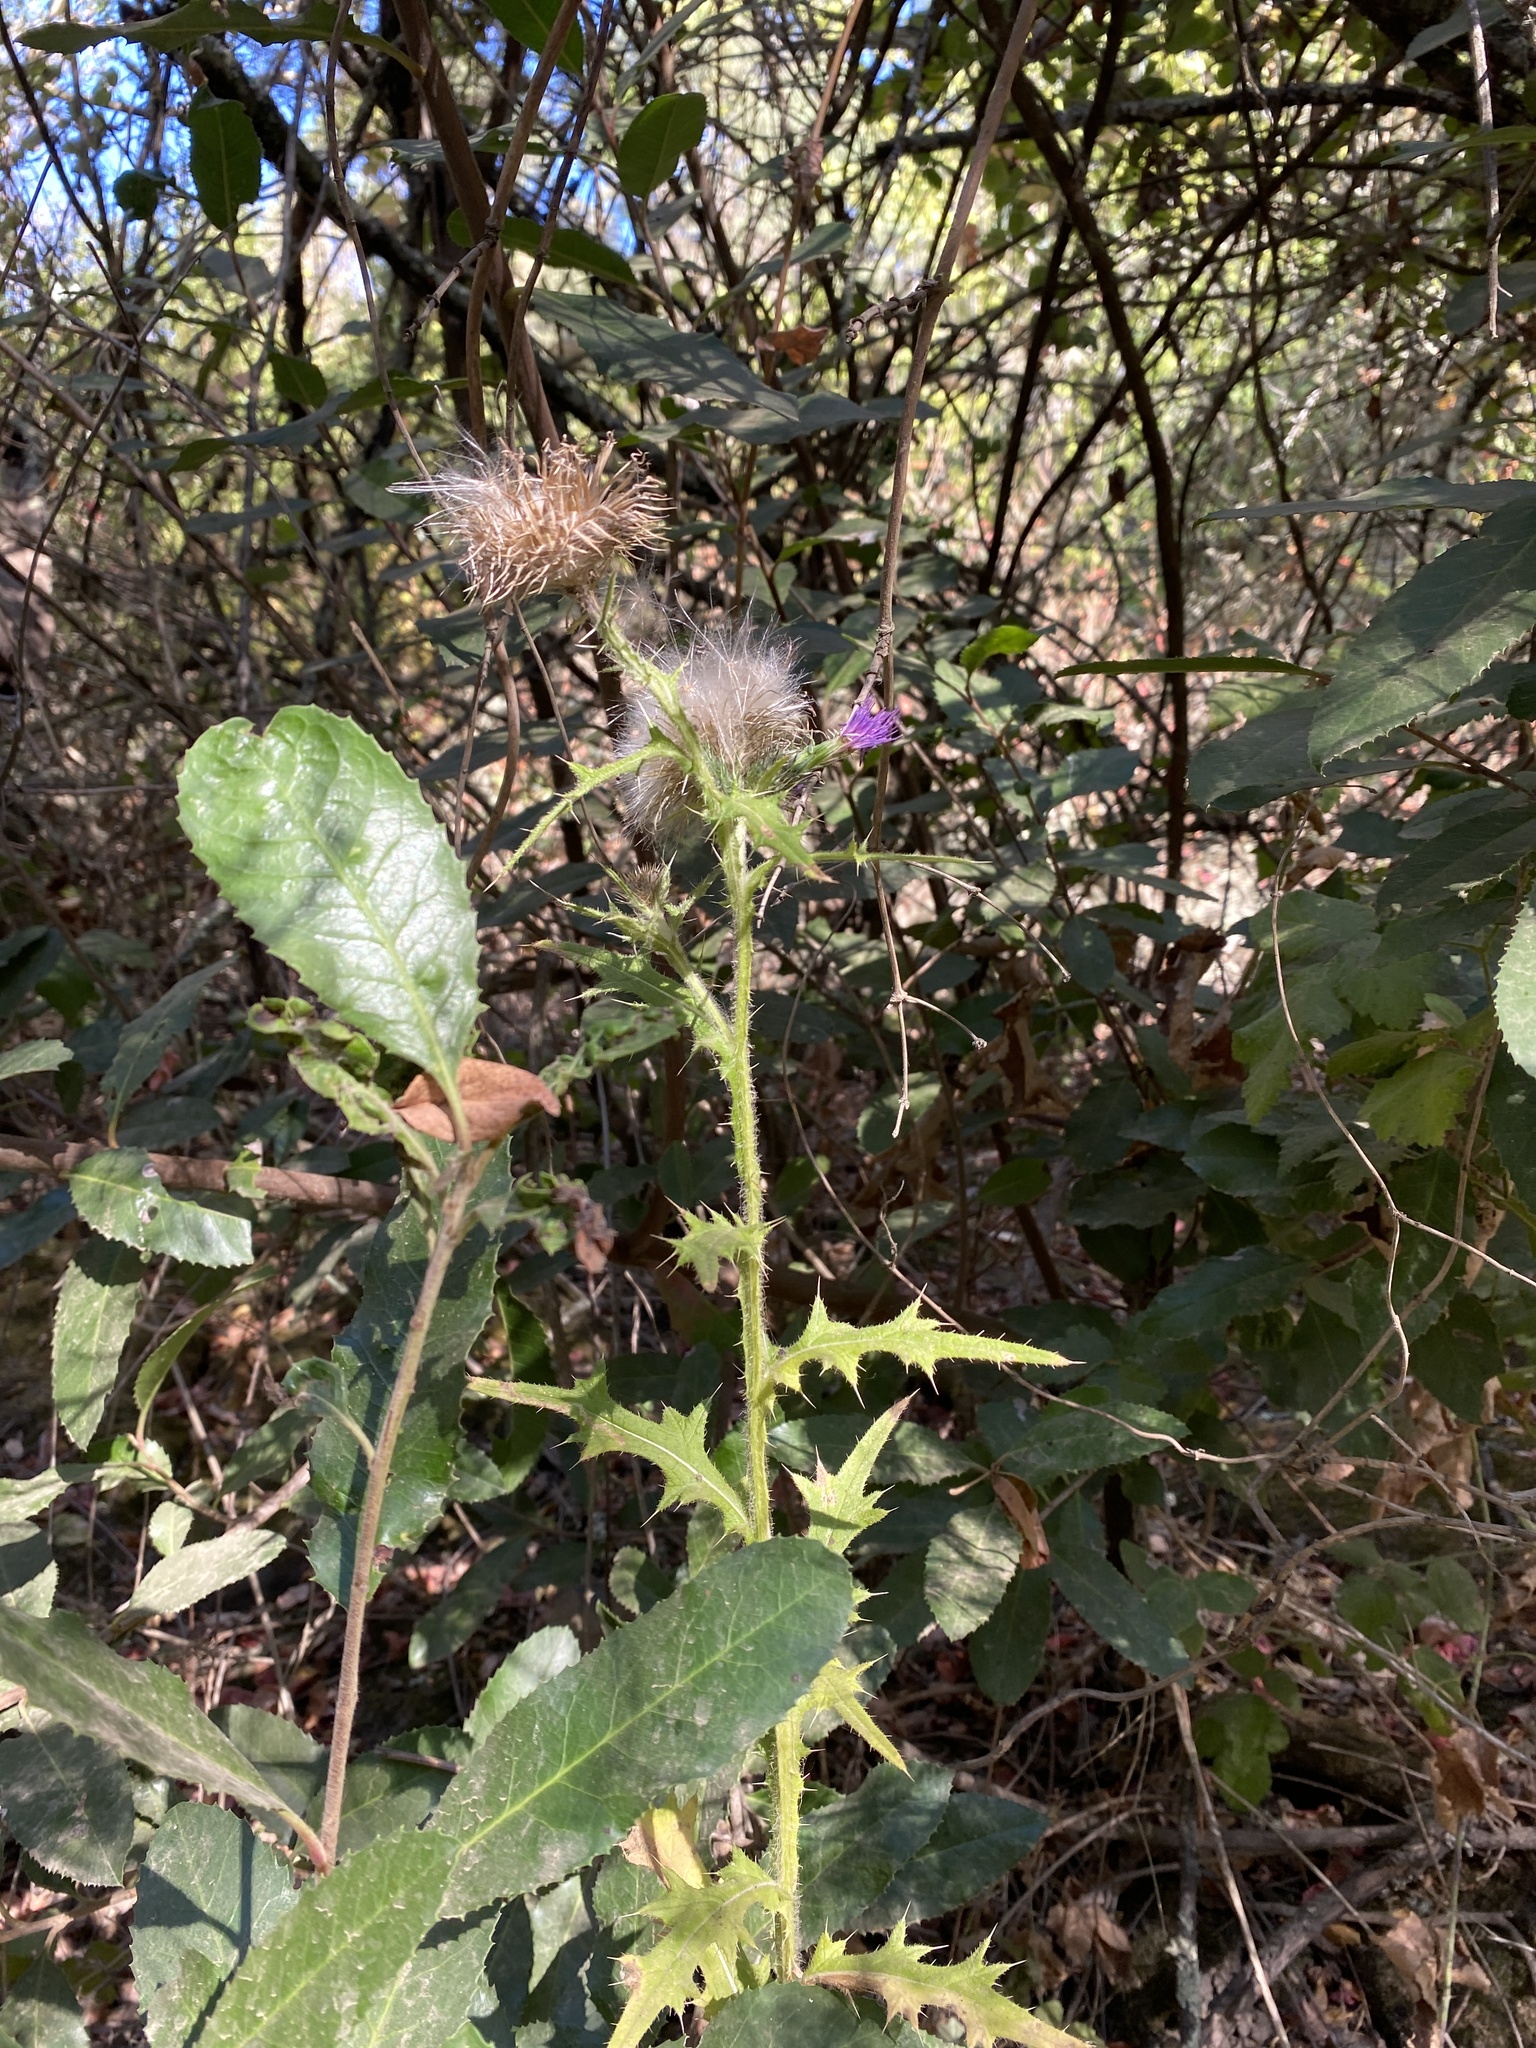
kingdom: Plantae
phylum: Tracheophyta
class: Magnoliopsida
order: Asterales
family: Asteraceae
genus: Cirsium
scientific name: Cirsium vulgare
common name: Bull thistle
